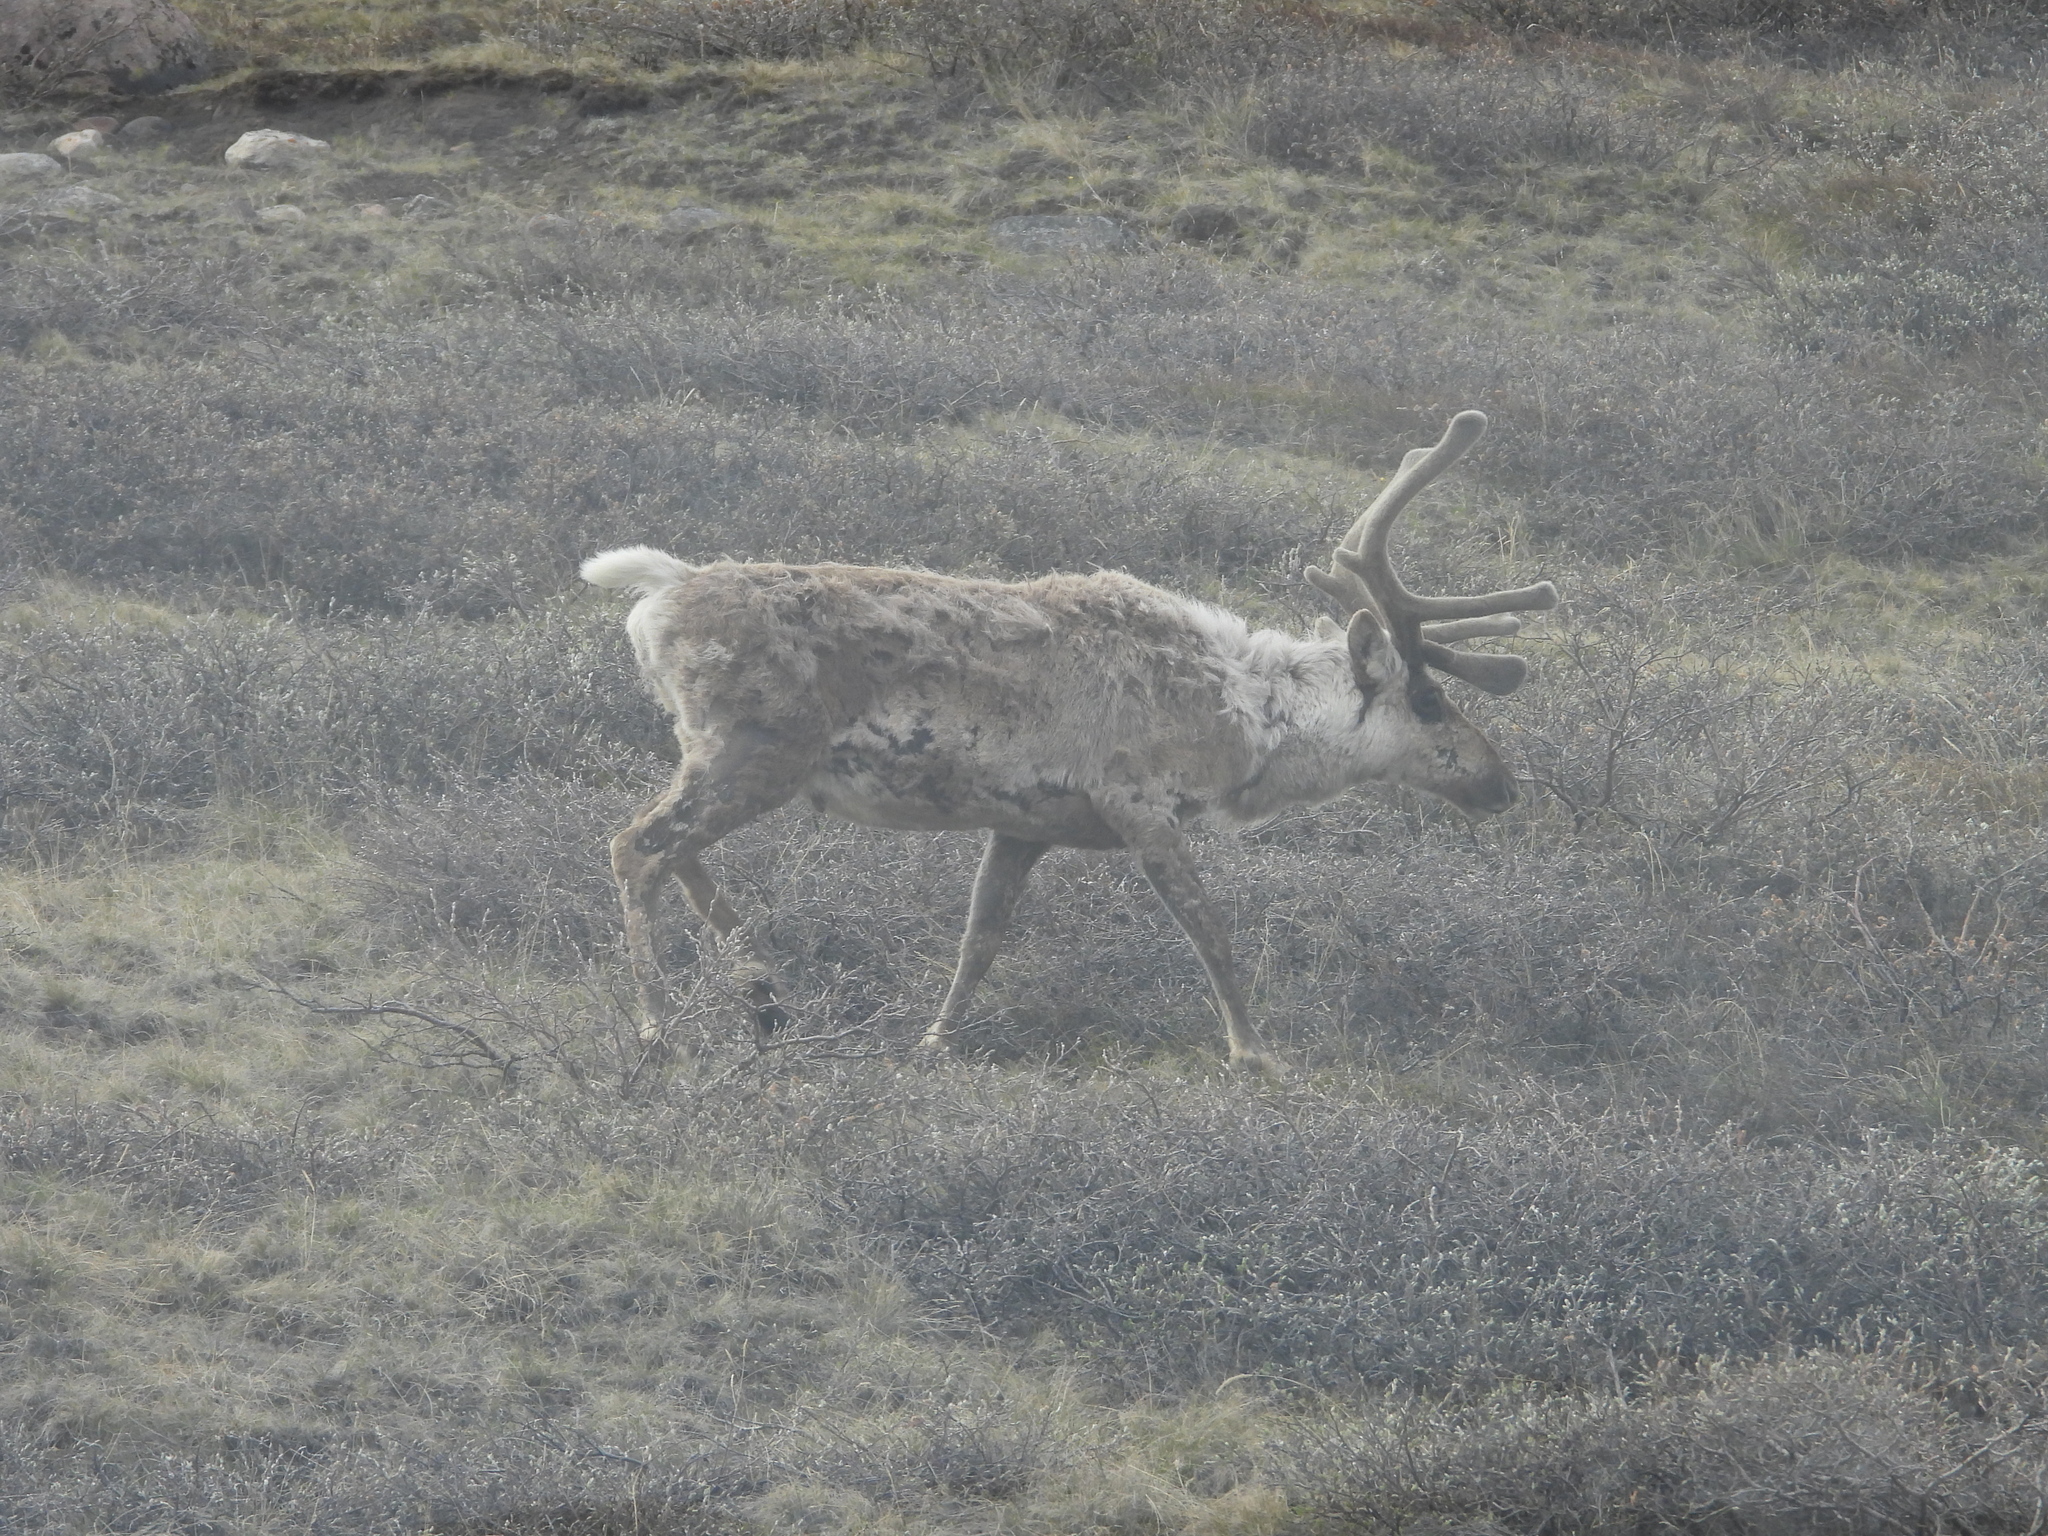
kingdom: Animalia
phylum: Chordata
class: Mammalia
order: Artiodactyla
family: Cervidae
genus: Rangifer
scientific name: Rangifer tarandus
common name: Reindeer
